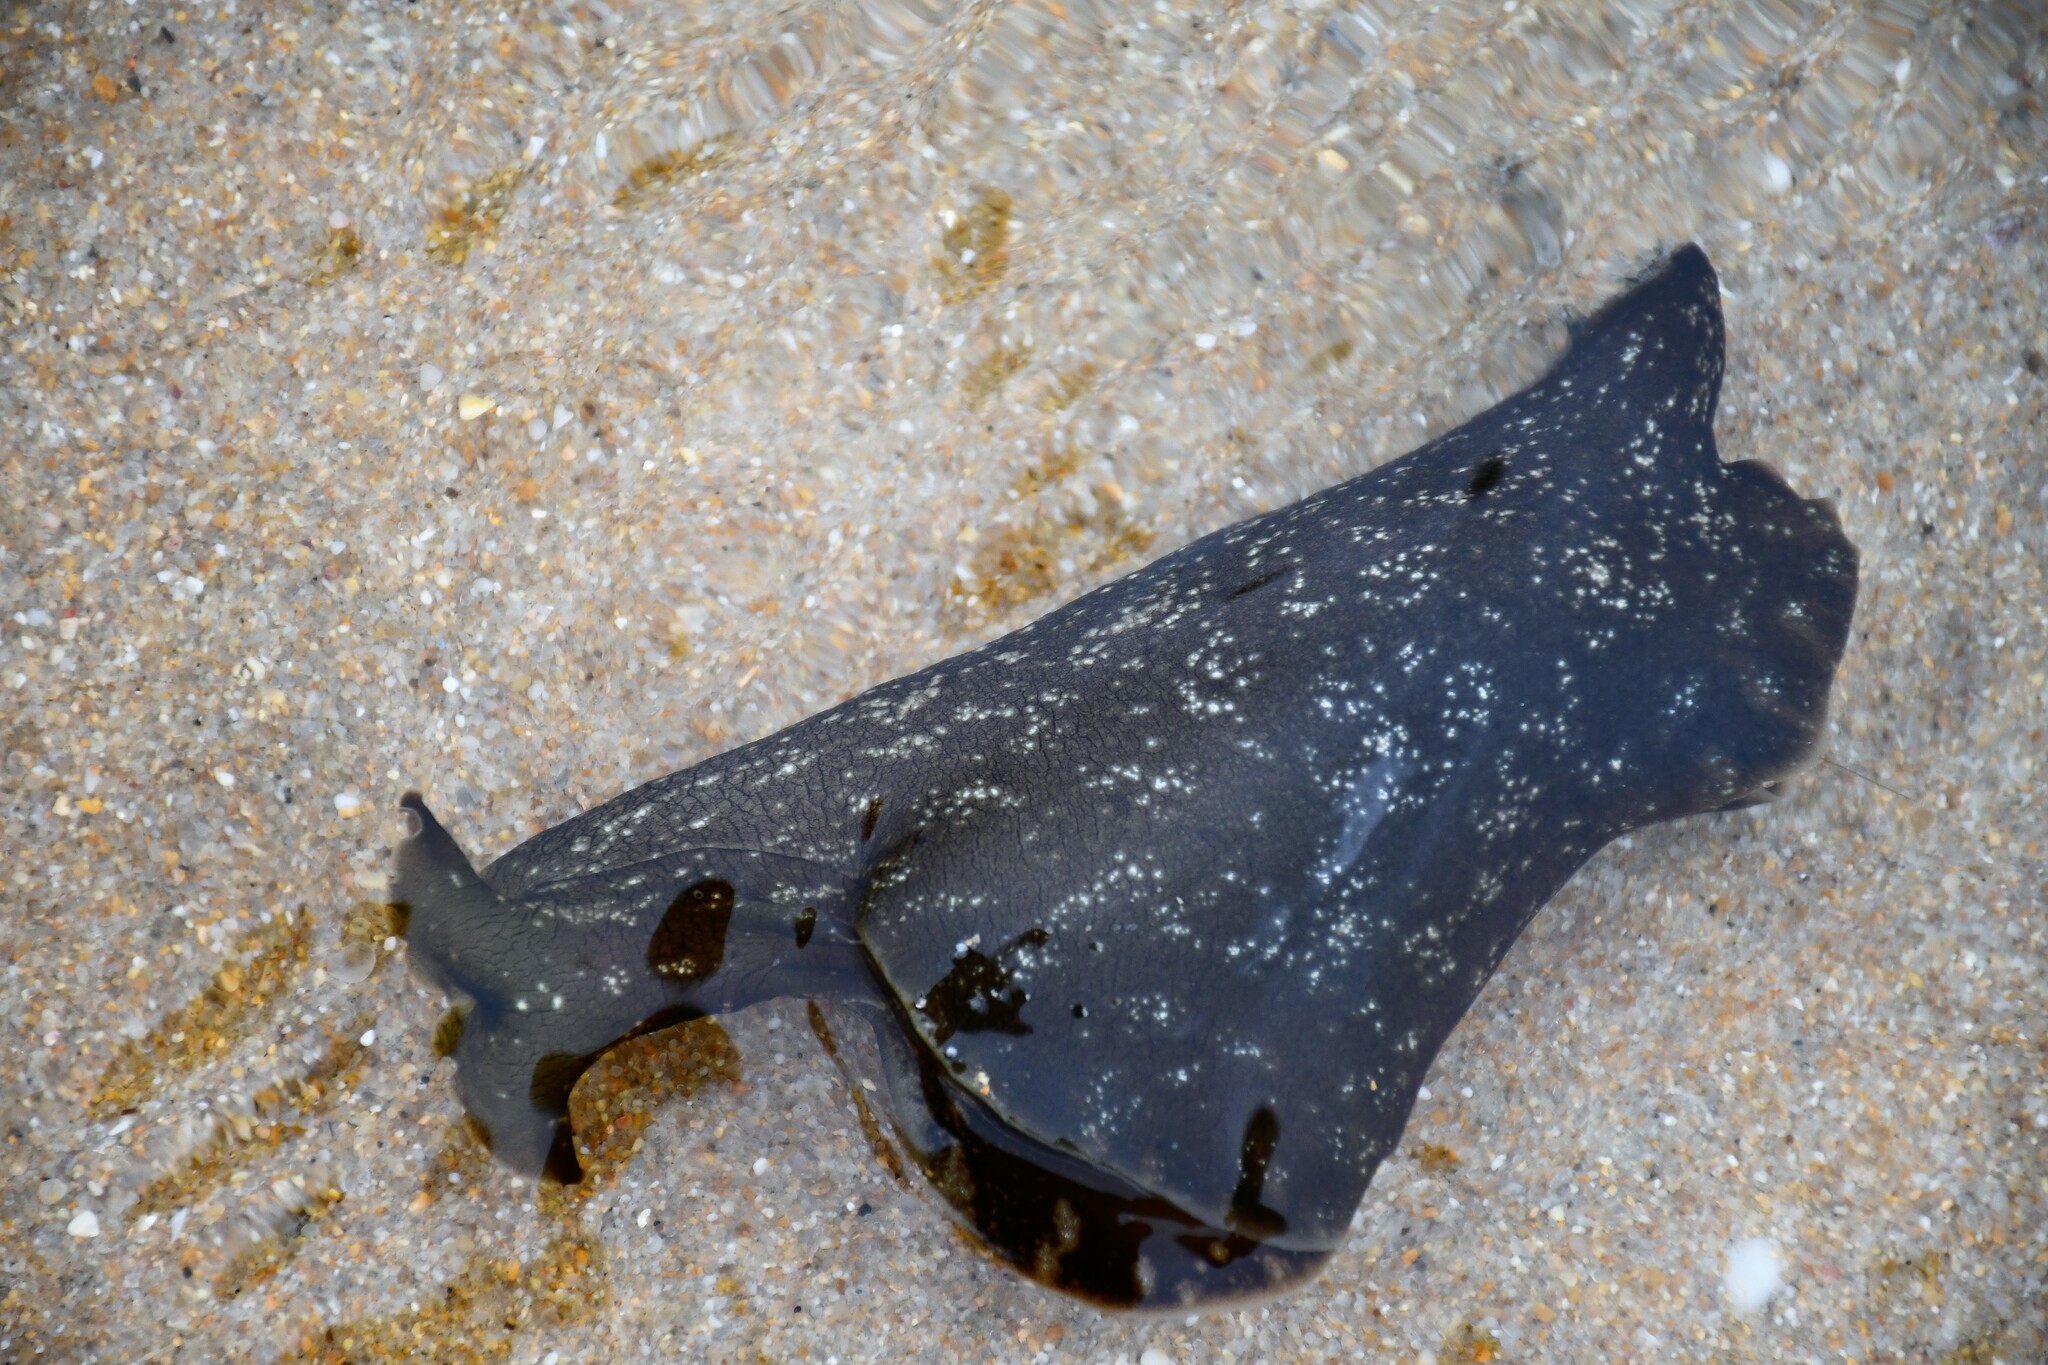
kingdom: Animalia
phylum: Mollusca
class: Gastropoda
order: Aplysiida
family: Aplysiidae
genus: Aplysia
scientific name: Aplysia fasciata
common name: Banded sea hare
